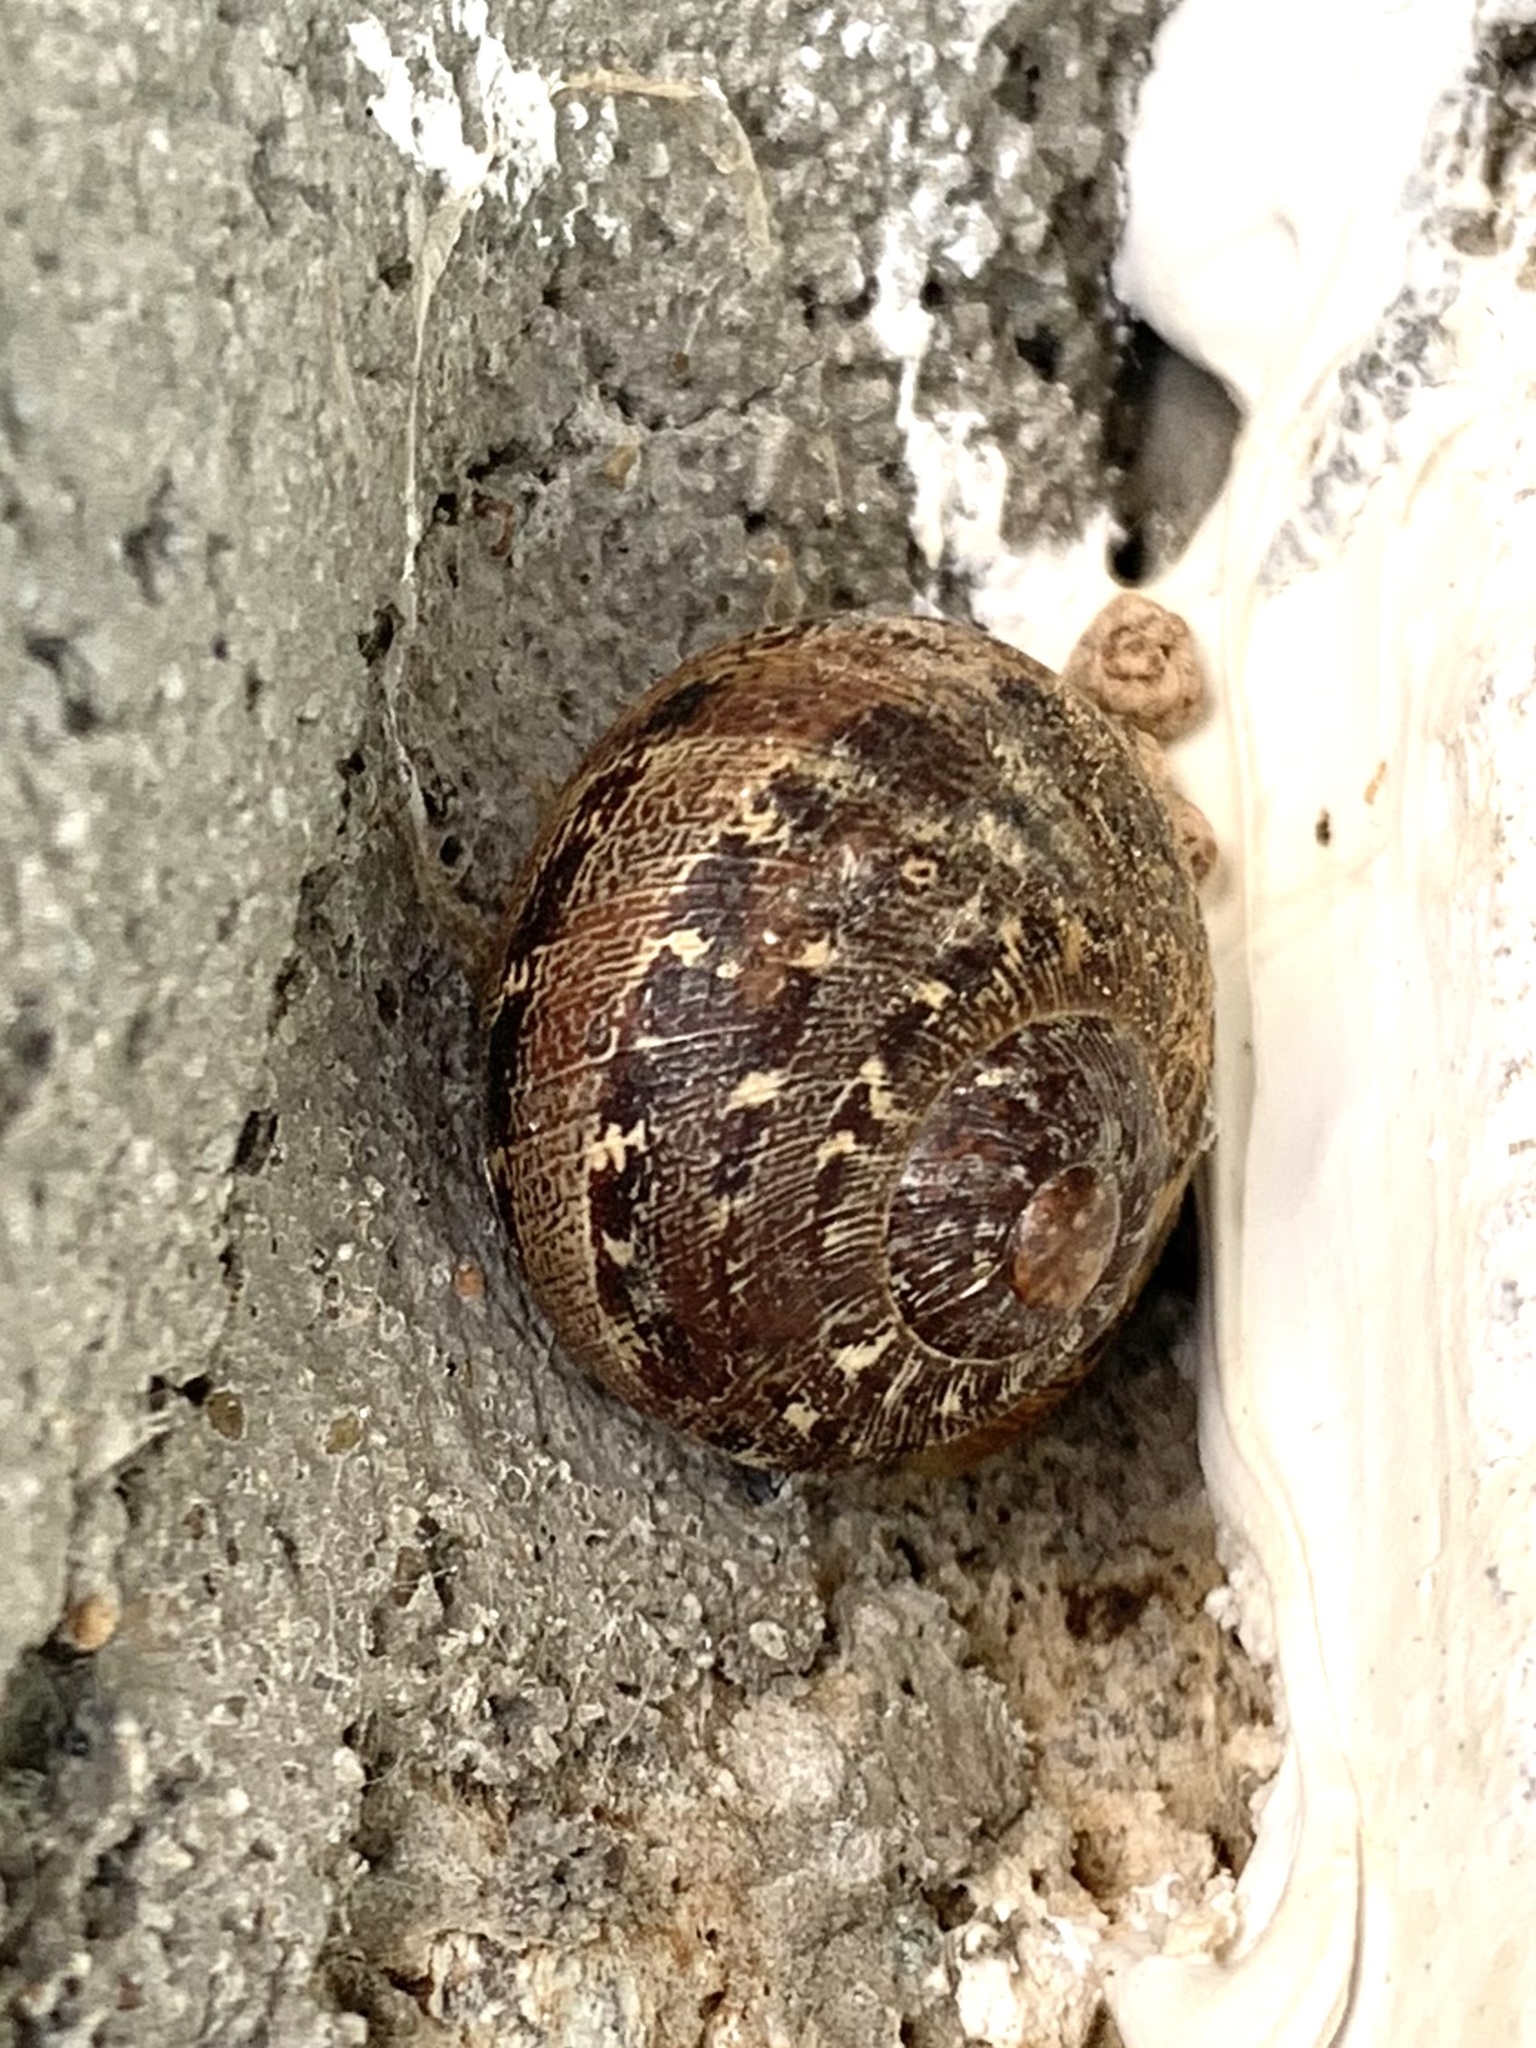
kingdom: Animalia
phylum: Mollusca
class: Gastropoda
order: Stylommatophora
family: Helicidae
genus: Cornu
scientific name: Cornu aspersum
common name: Brown garden snail
